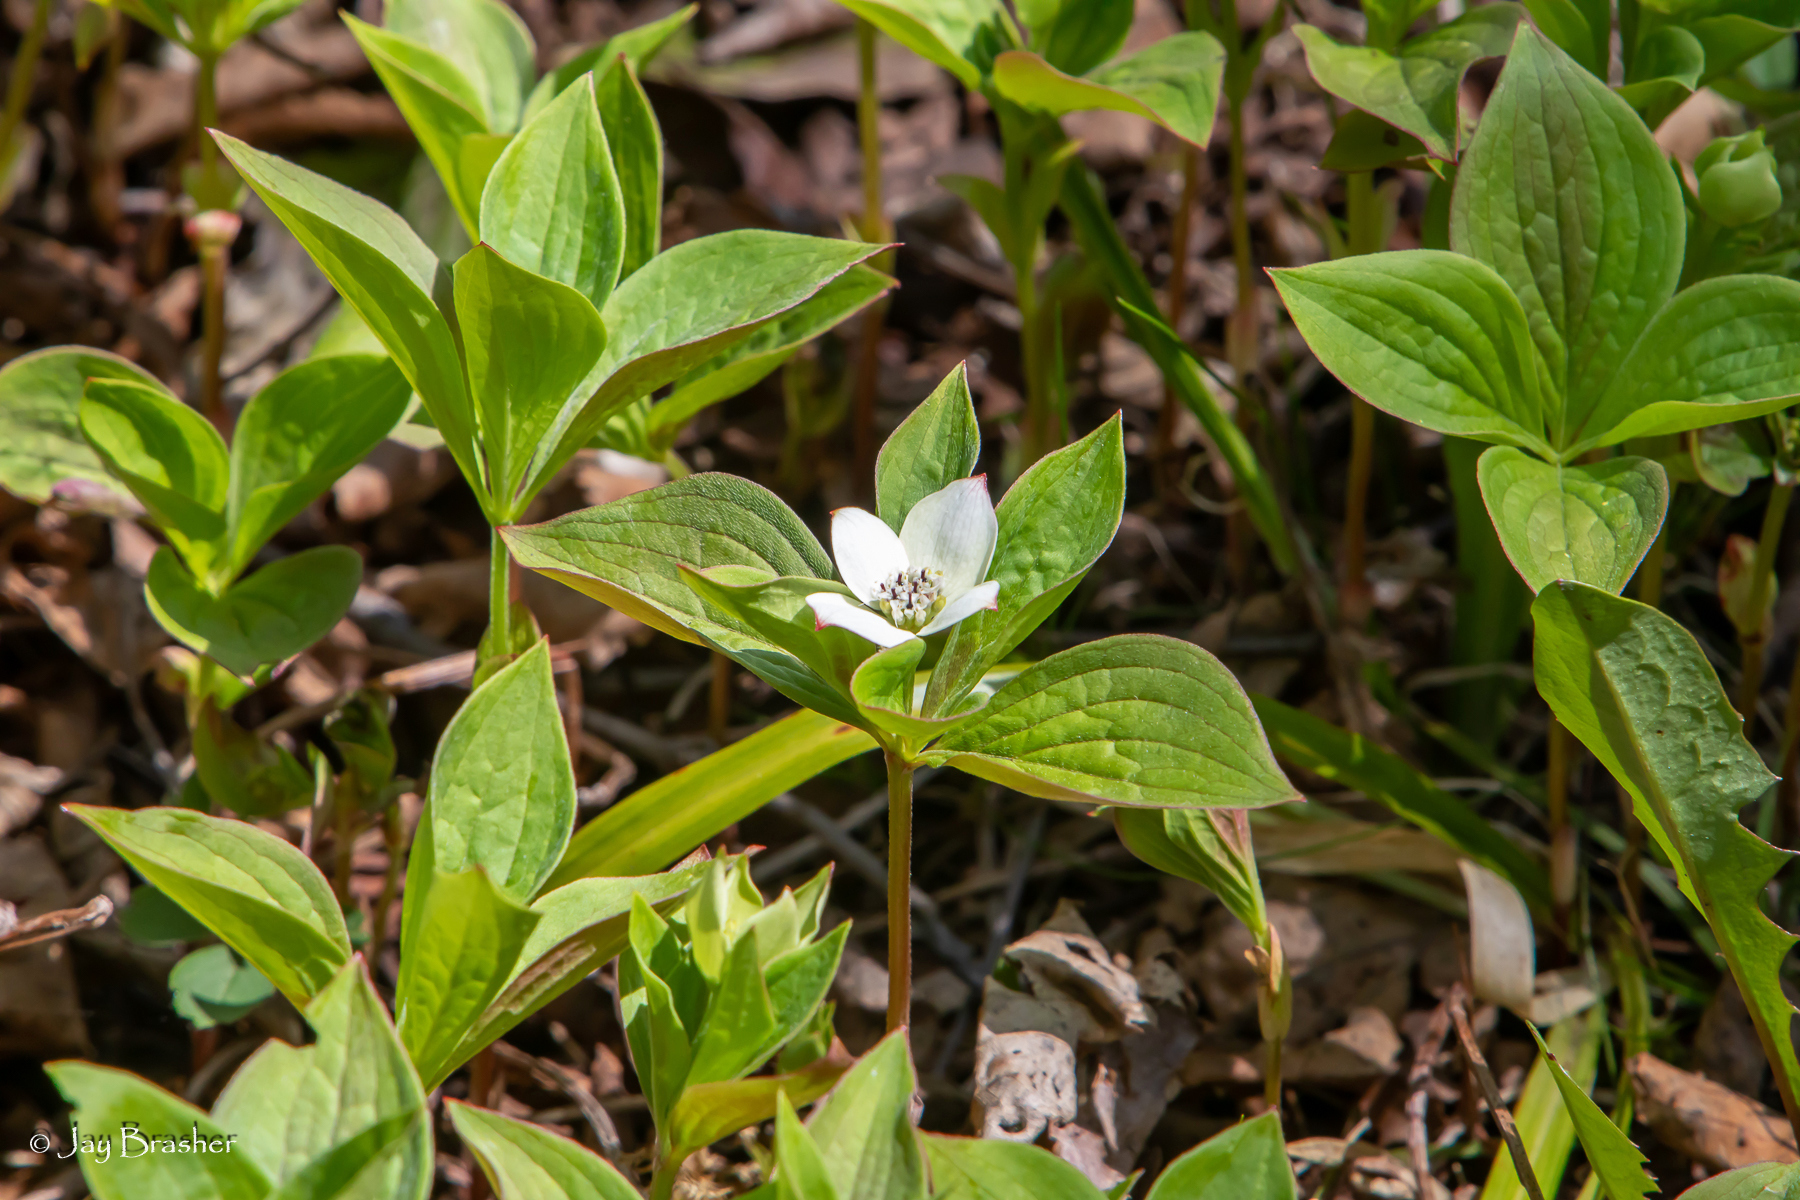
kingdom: Plantae
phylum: Tracheophyta
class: Magnoliopsida
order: Cornales
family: Cornaceae
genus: Cornus
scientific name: Cornus canadensis
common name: Creeping dogwood
